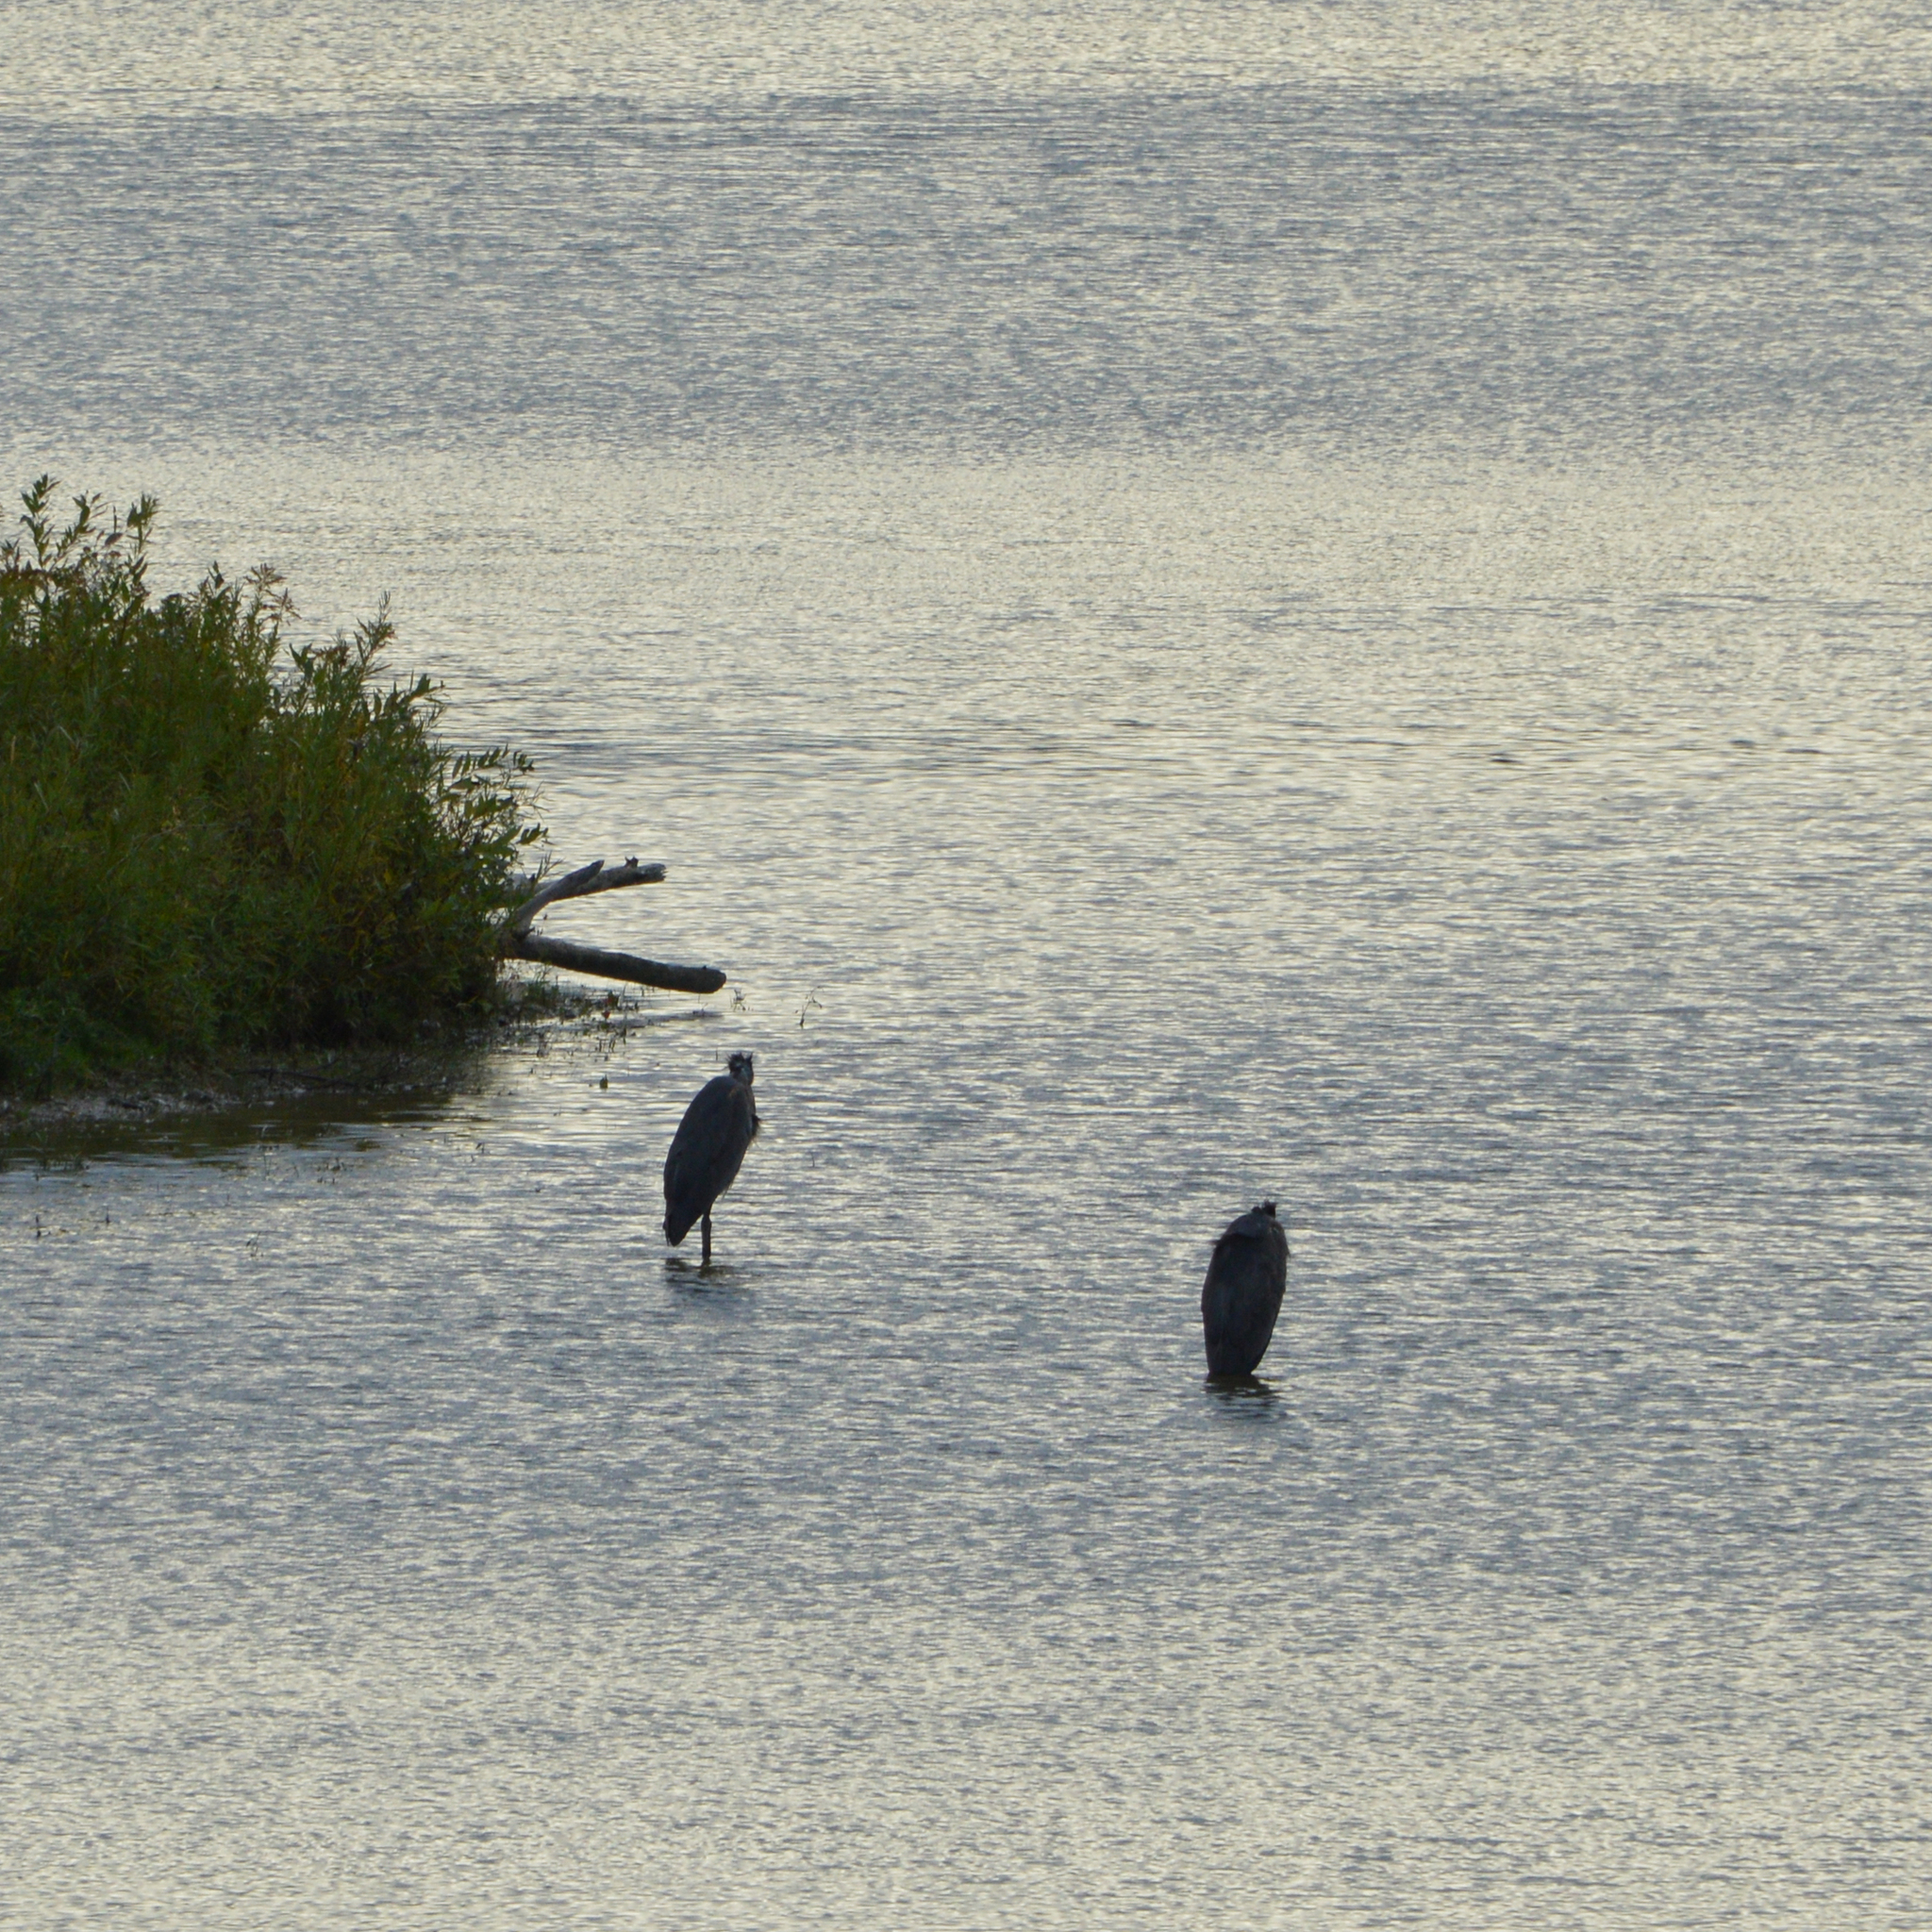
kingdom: Animalia
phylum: Chordata
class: Aves
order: Pelecaniformes
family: Ardeidae
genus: Ardea
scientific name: Ardea herodias
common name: Great blue heron
